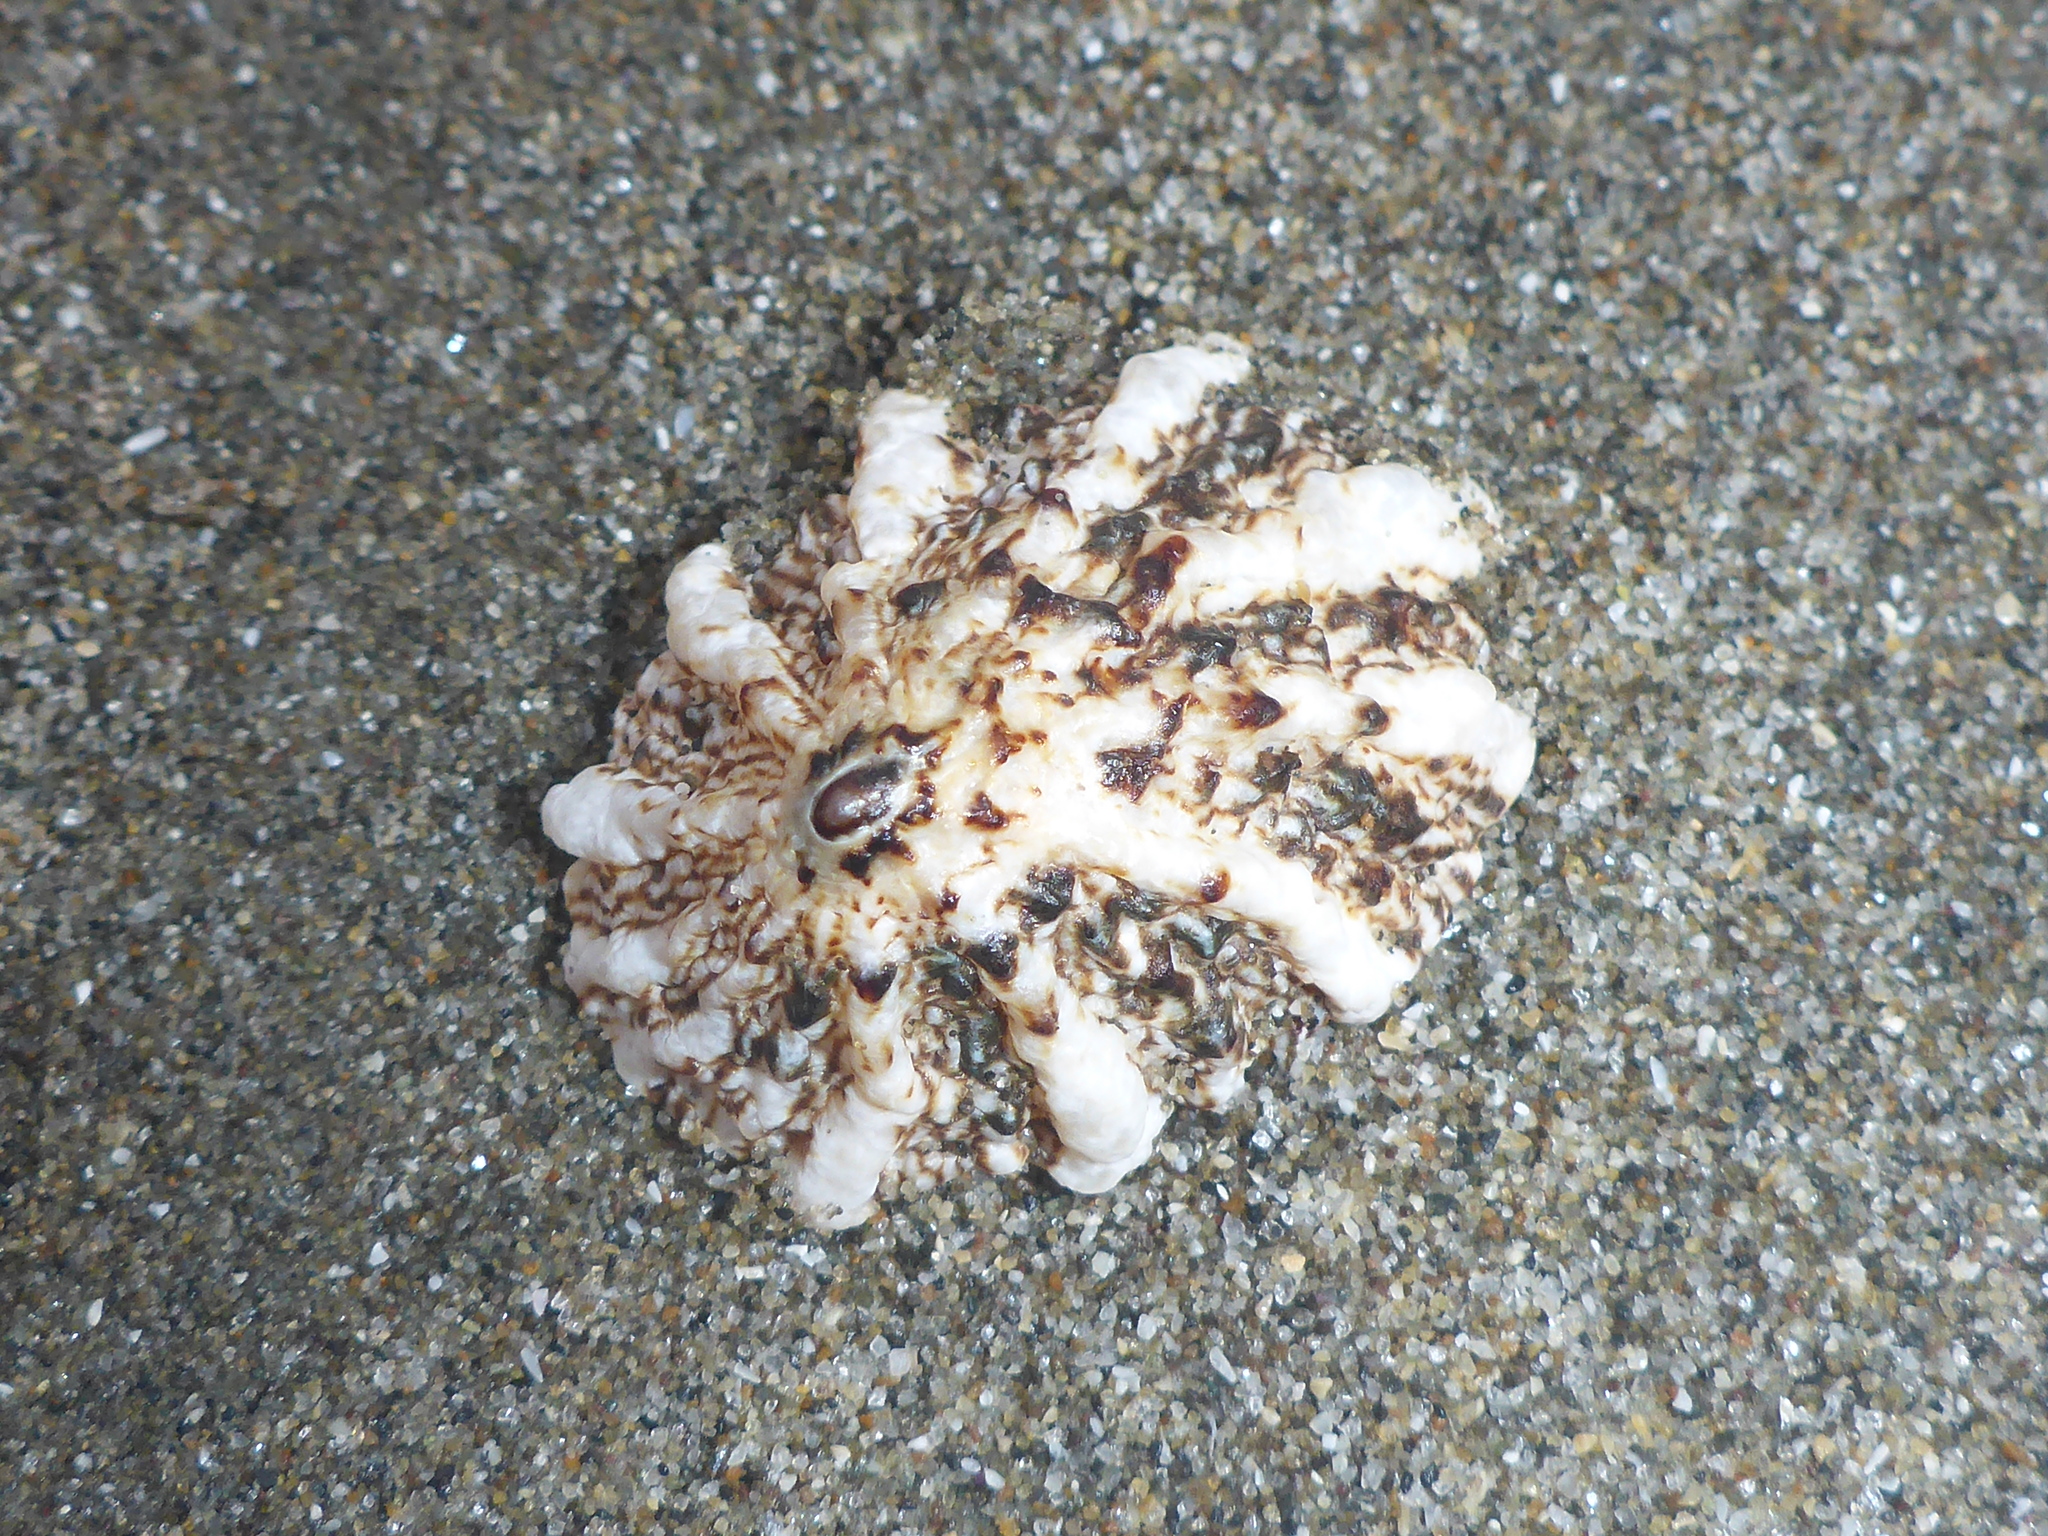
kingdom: Animalia
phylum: Mollusca
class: Gastropoda
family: Lottiidae
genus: Lottia
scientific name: Lottia scabra
